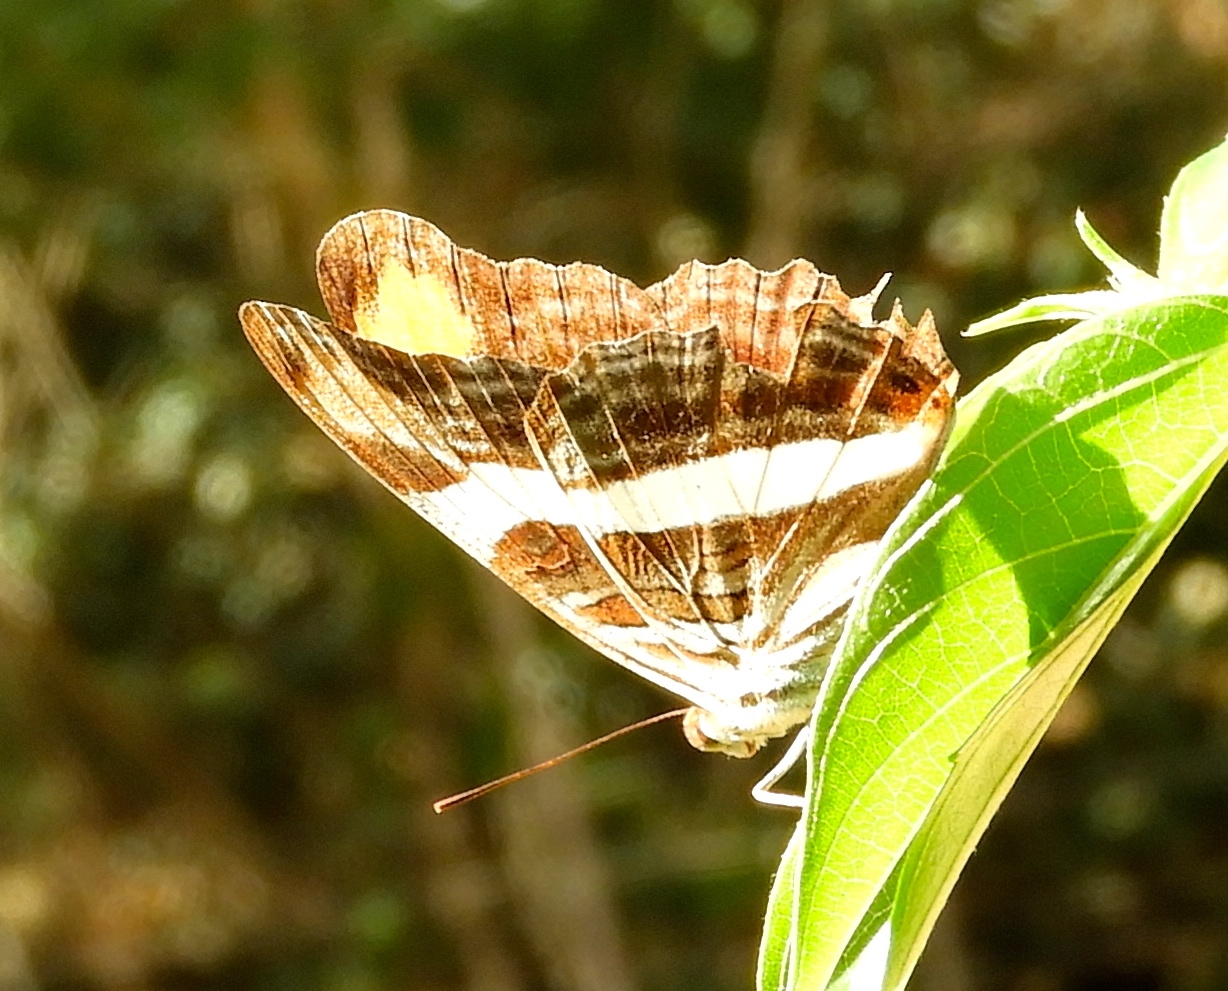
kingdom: Animalia
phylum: Arthropoda
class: Insecta
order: Lepidoptera
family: Nymphalidae
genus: Limenitis
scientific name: Limenitis fessonia
